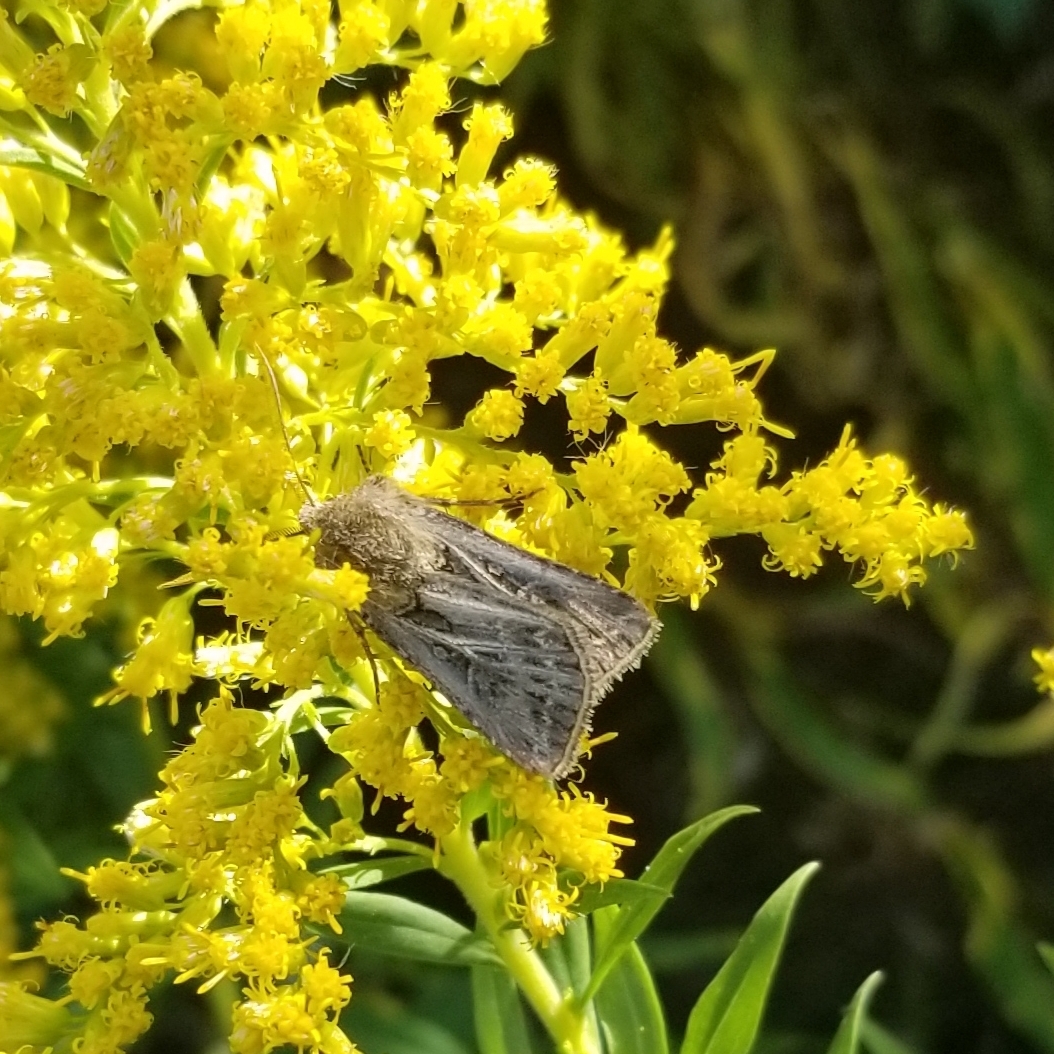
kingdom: Animalia
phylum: Arthropoda
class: Insecta
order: Lepidoptera
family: Noctuidae
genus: Agrotis
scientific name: Agrotis gladiaria
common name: Claybacked cutworm
